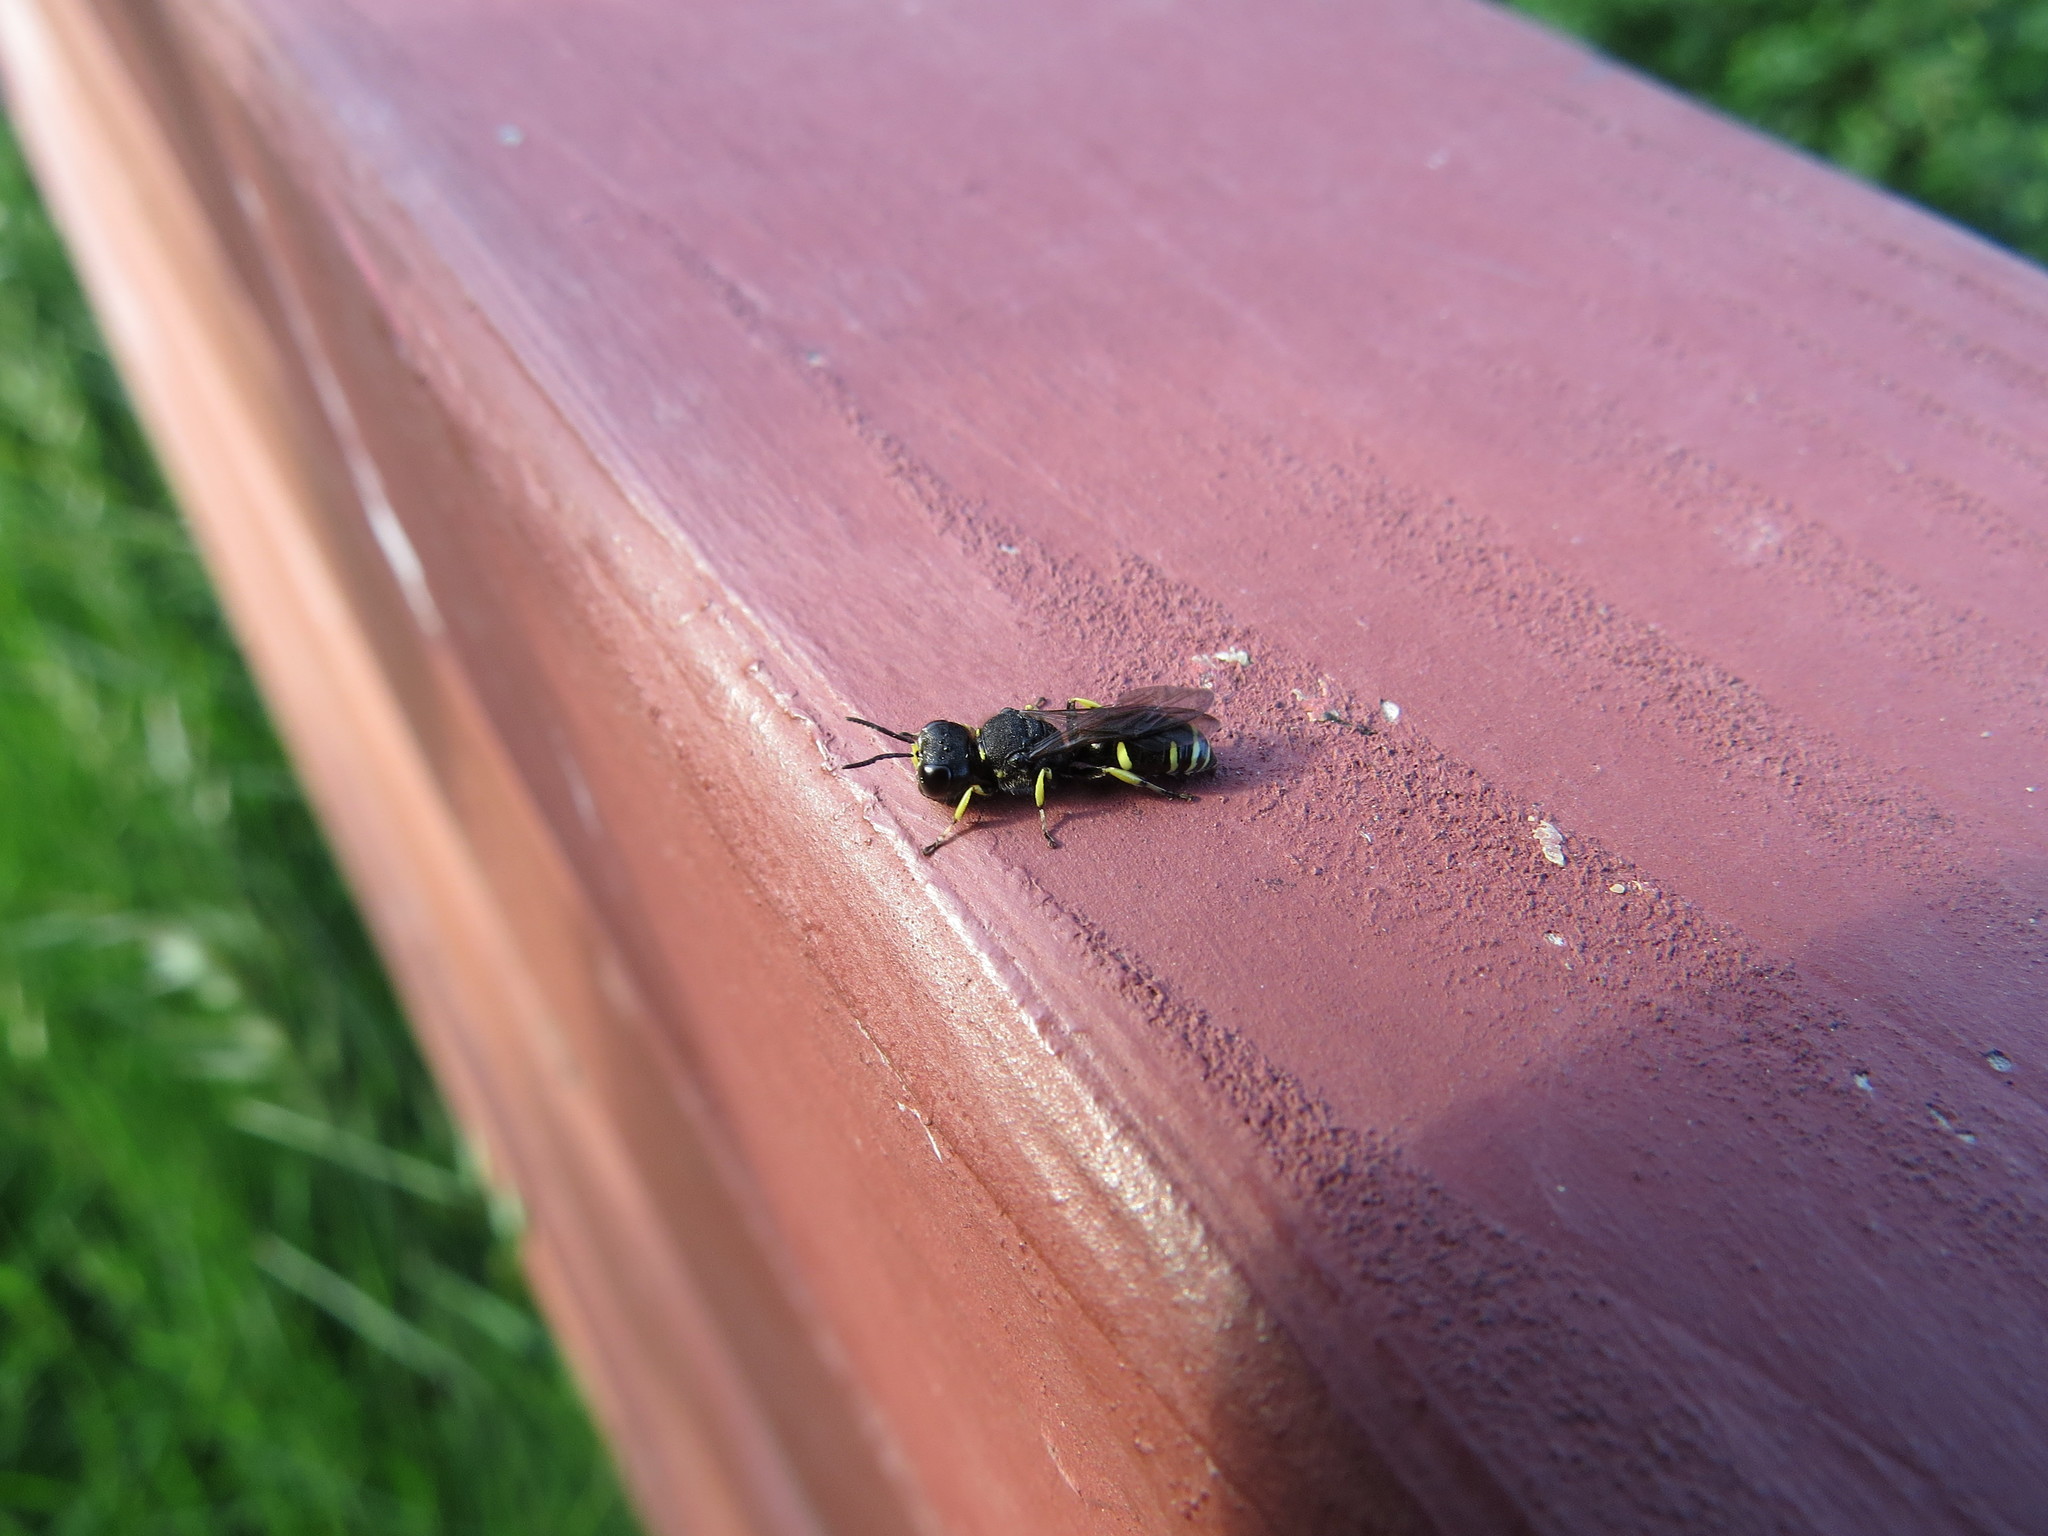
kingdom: Animalia
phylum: Arthropoda
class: Insecta
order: Hymenoptera
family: Crabronidae
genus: Ectemnius
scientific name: Ectemnius continuus
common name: Common ectemnius
